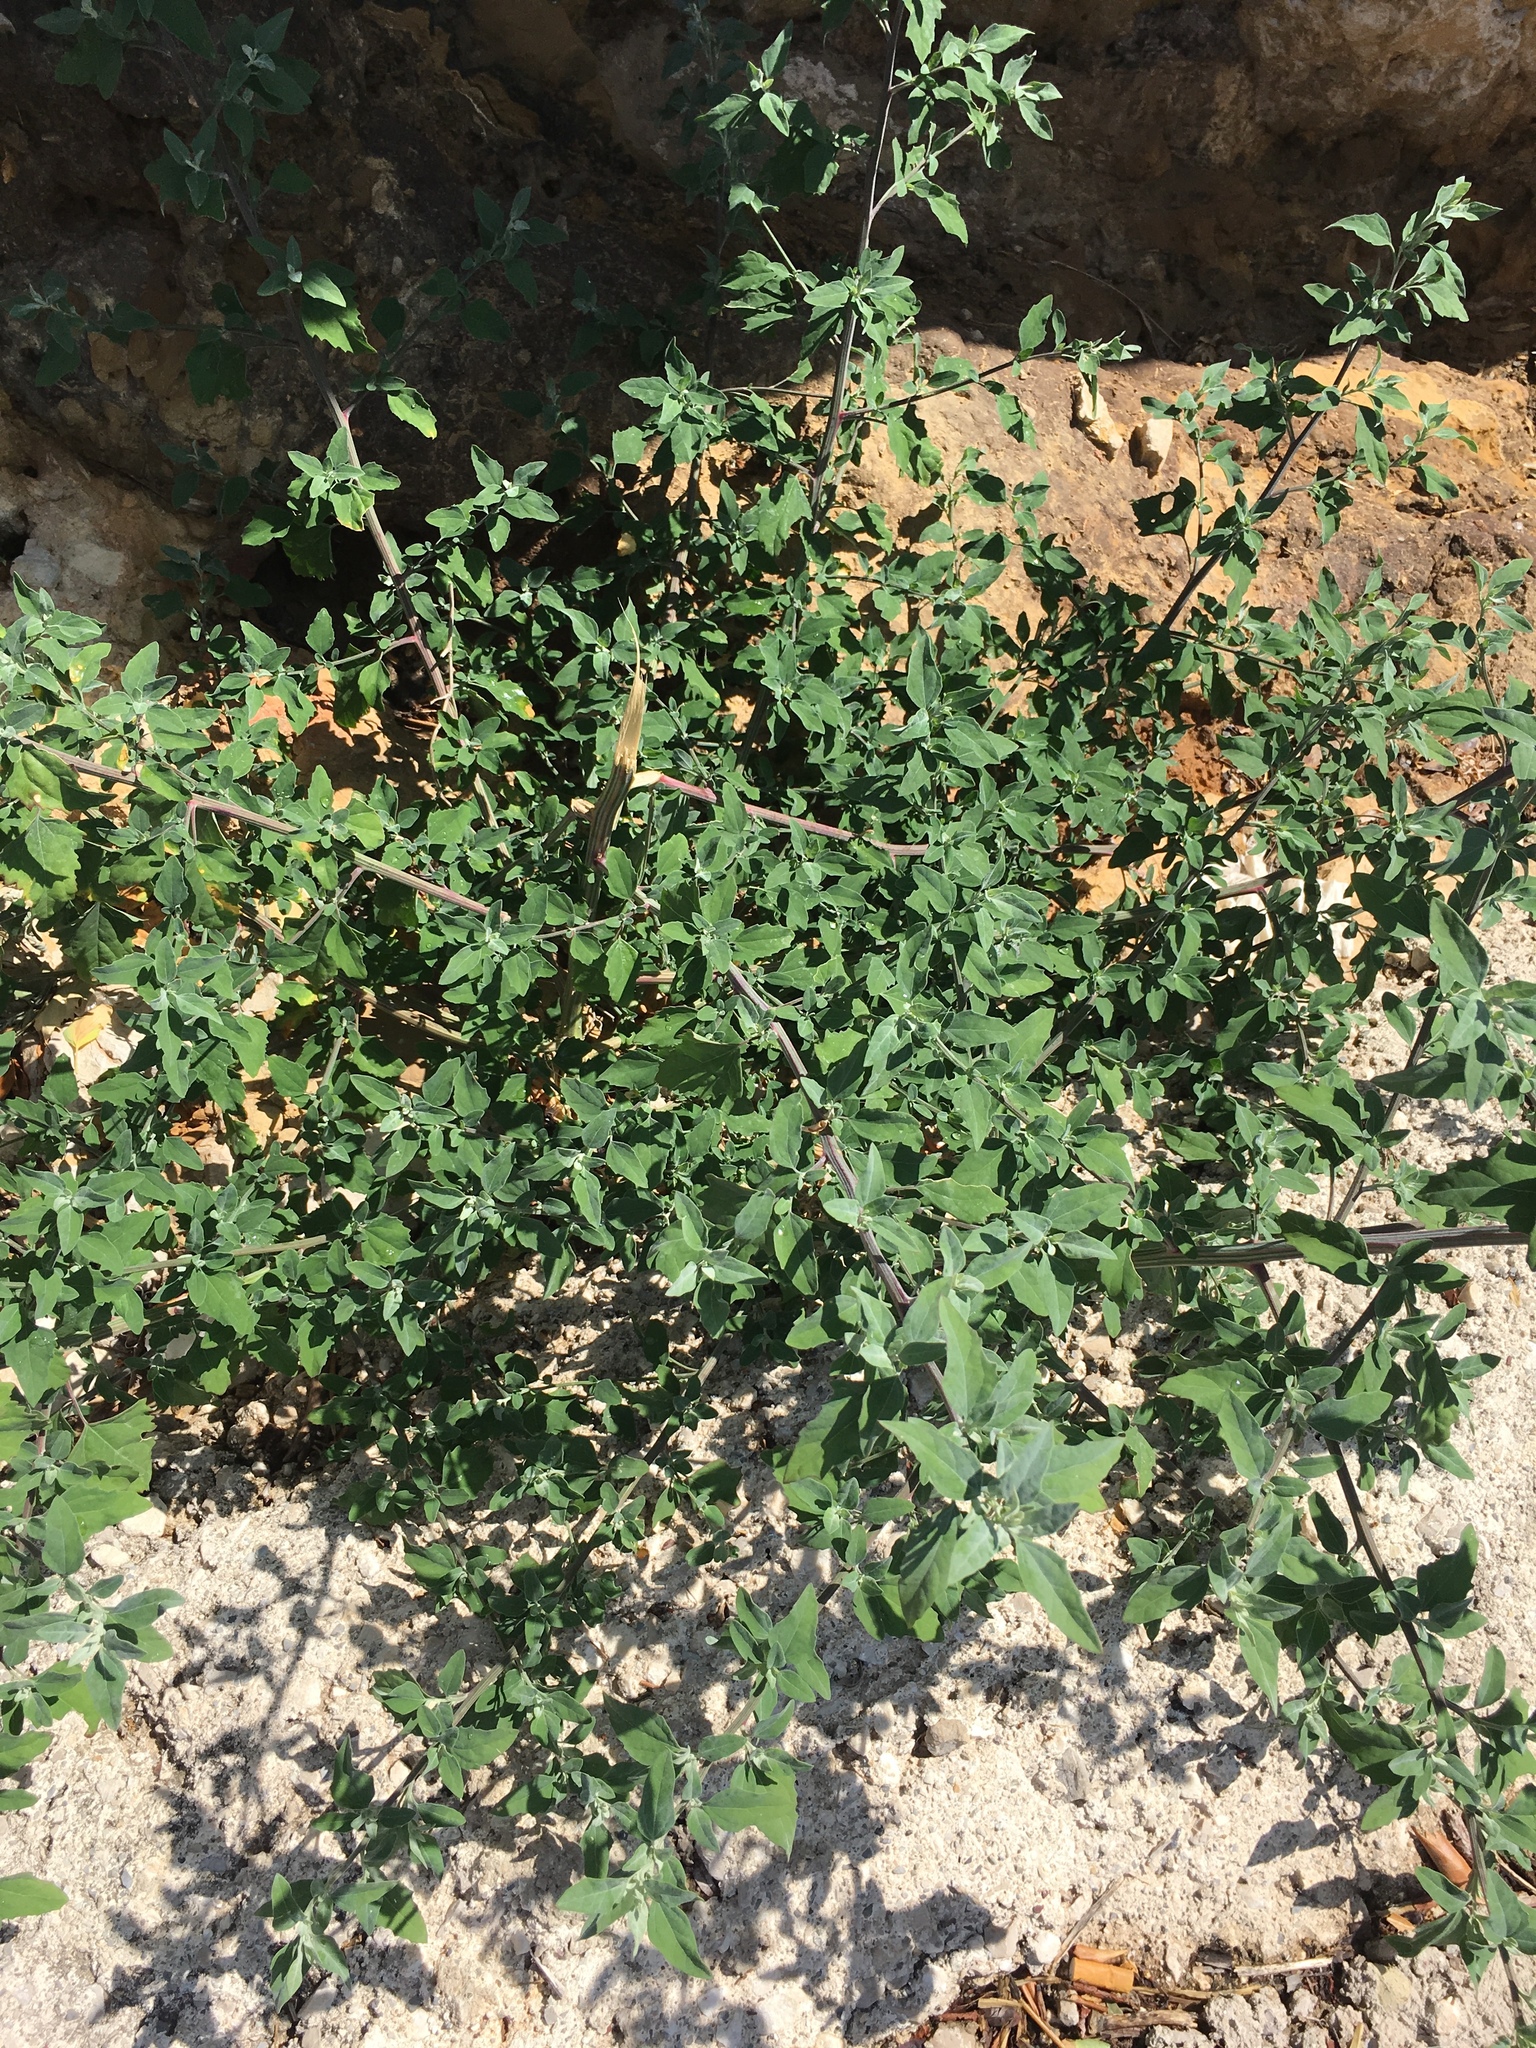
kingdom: Plantae
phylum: Tracheophyta
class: Magnoliopsida
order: Caryophyllales
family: Amaranthaceae
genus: Chenopodium
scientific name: Chenopodium album
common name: Fat-hen
